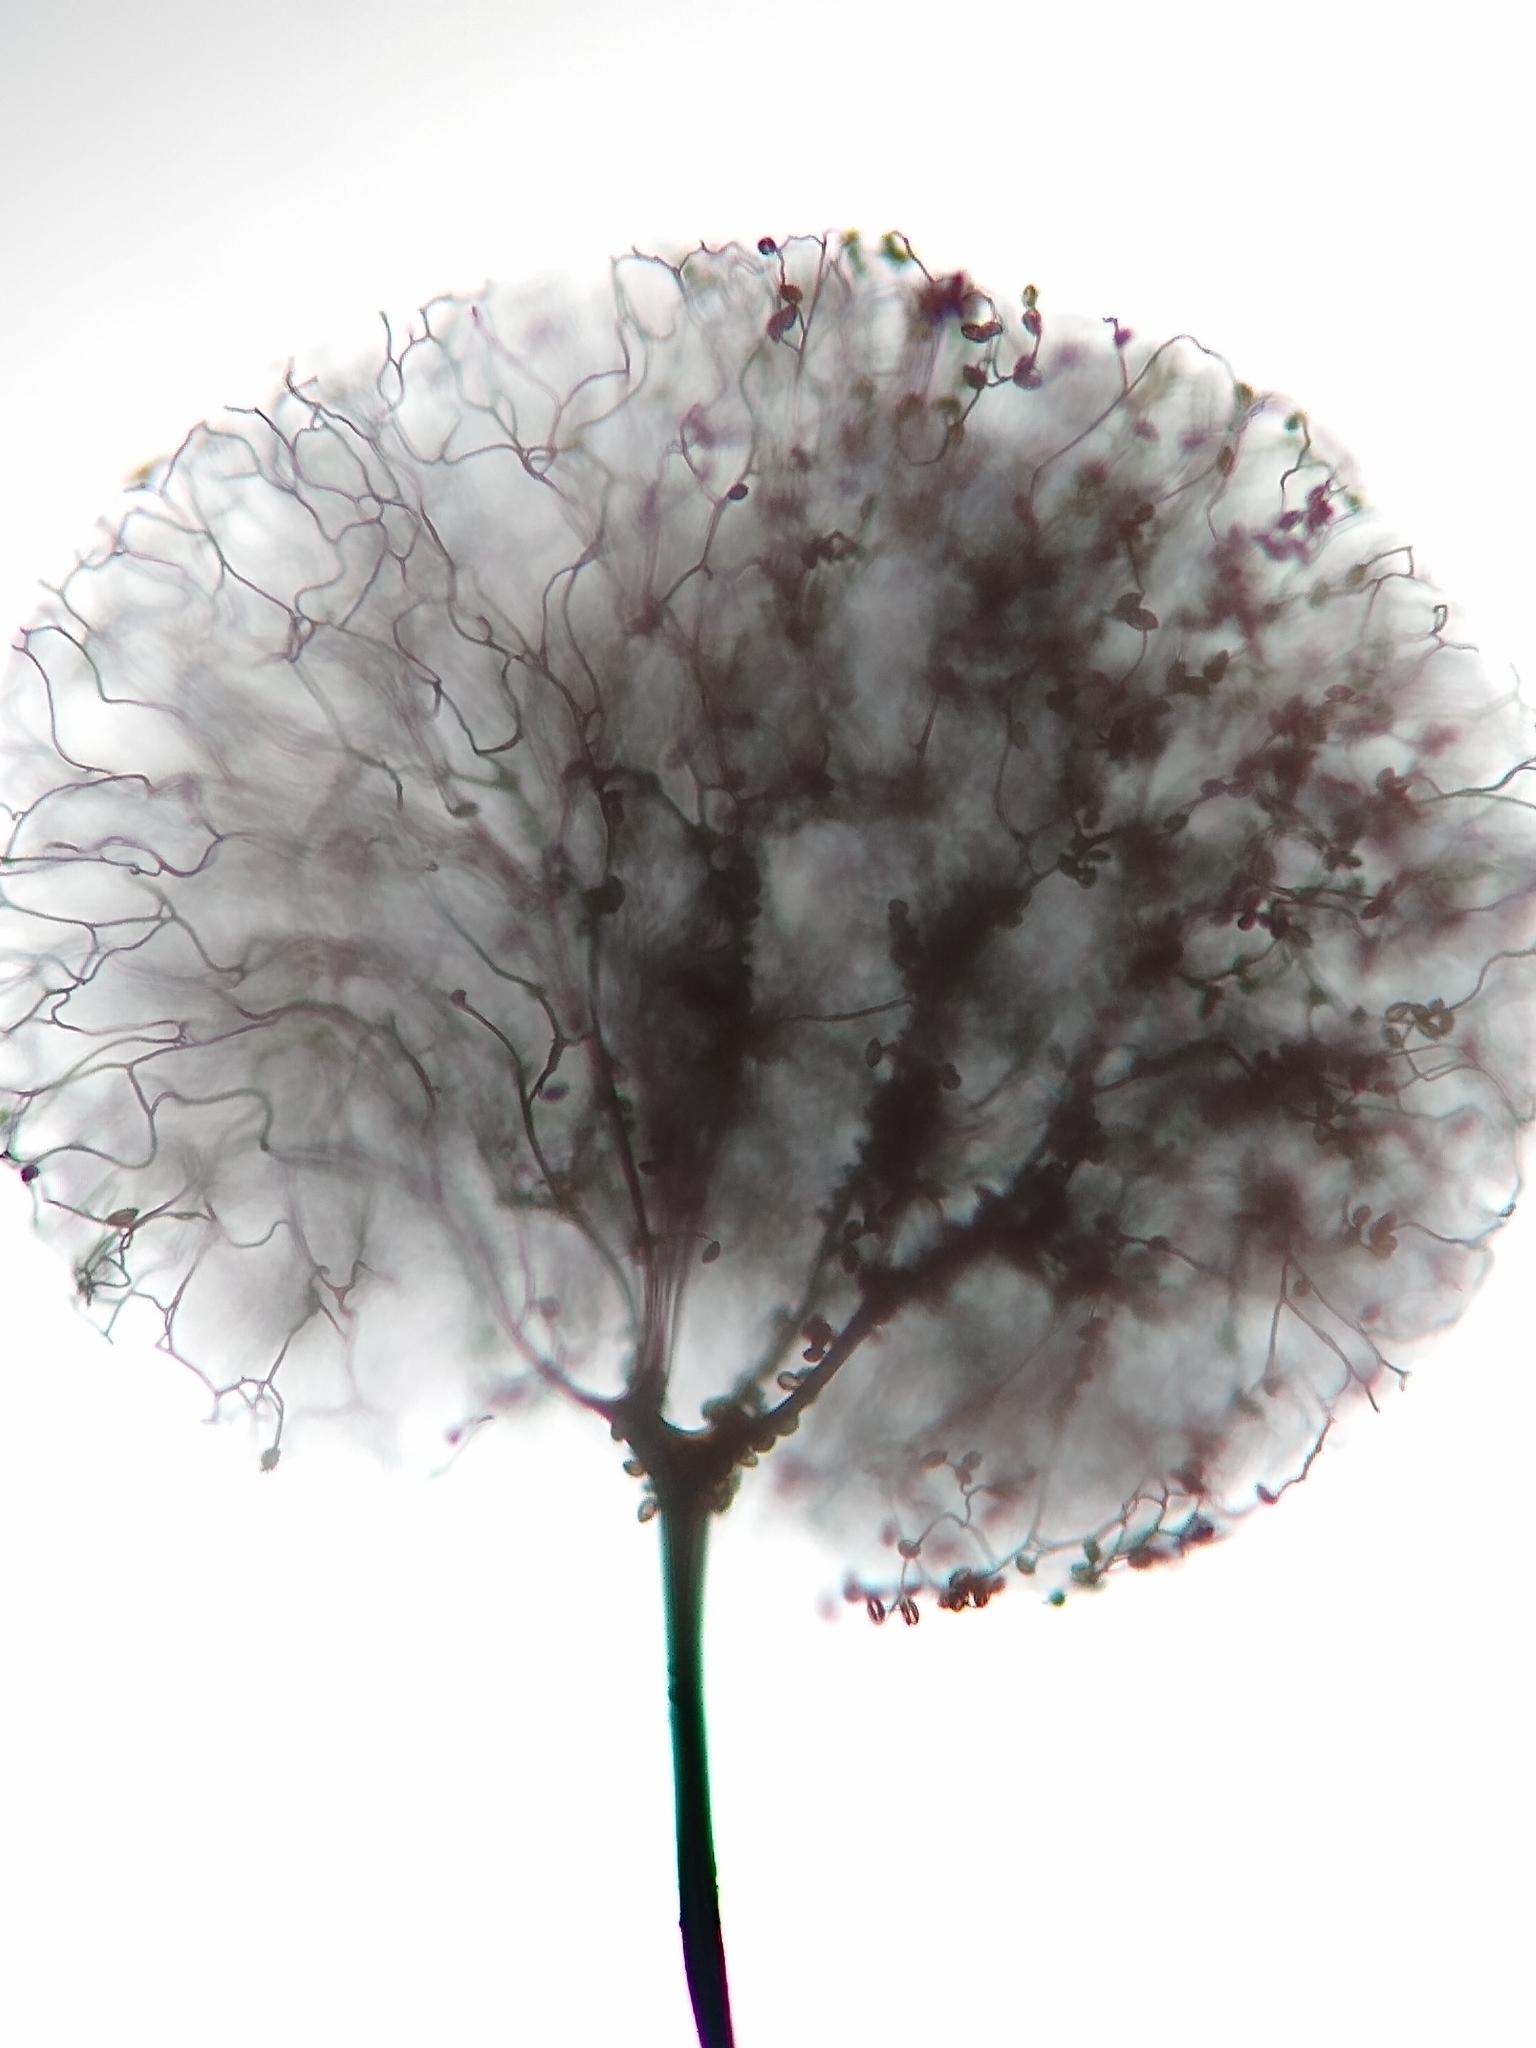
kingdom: Protozoa
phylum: Mycetozoa
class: Myxomycetes
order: Stemonitidales
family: Stemonitidaceae
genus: Comatricha
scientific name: Comatricha elegans
